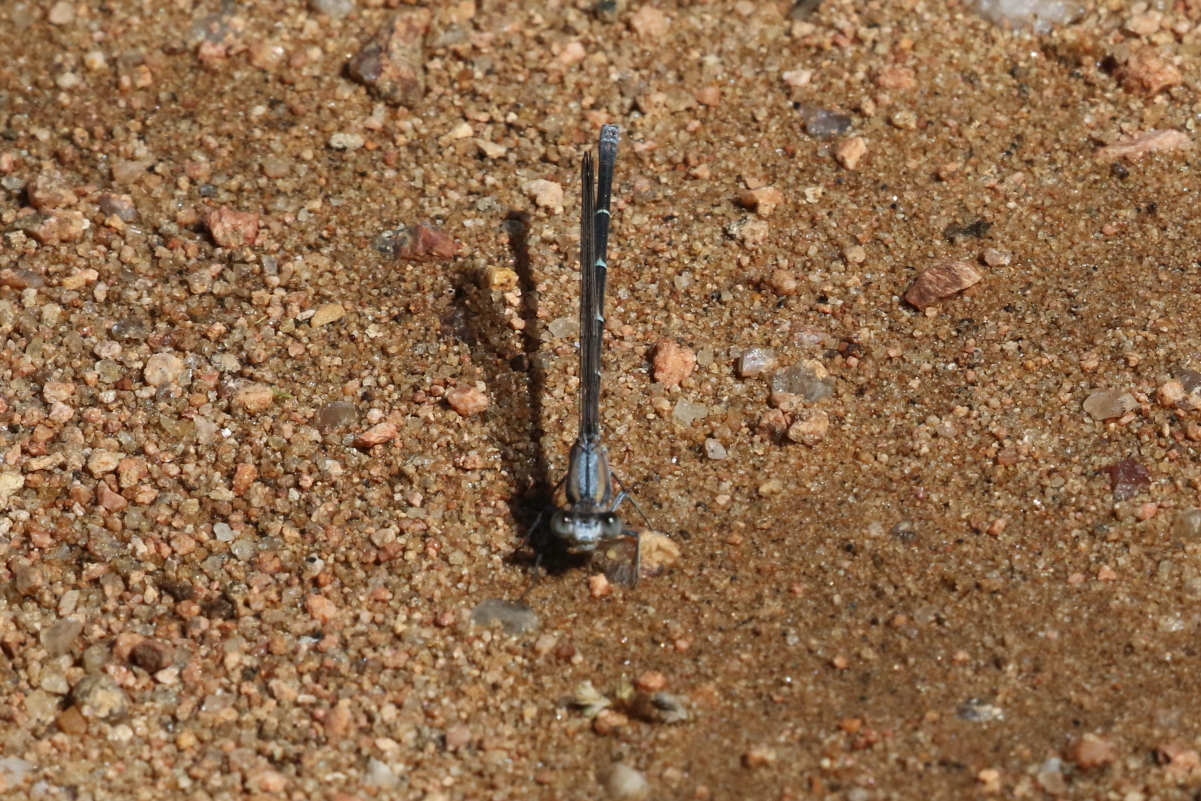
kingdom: Animalia
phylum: Arthropoda
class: Insecta
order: Odonata
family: Coenagrionidae
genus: Argia
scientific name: Argia moesta
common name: Powdered dancer
